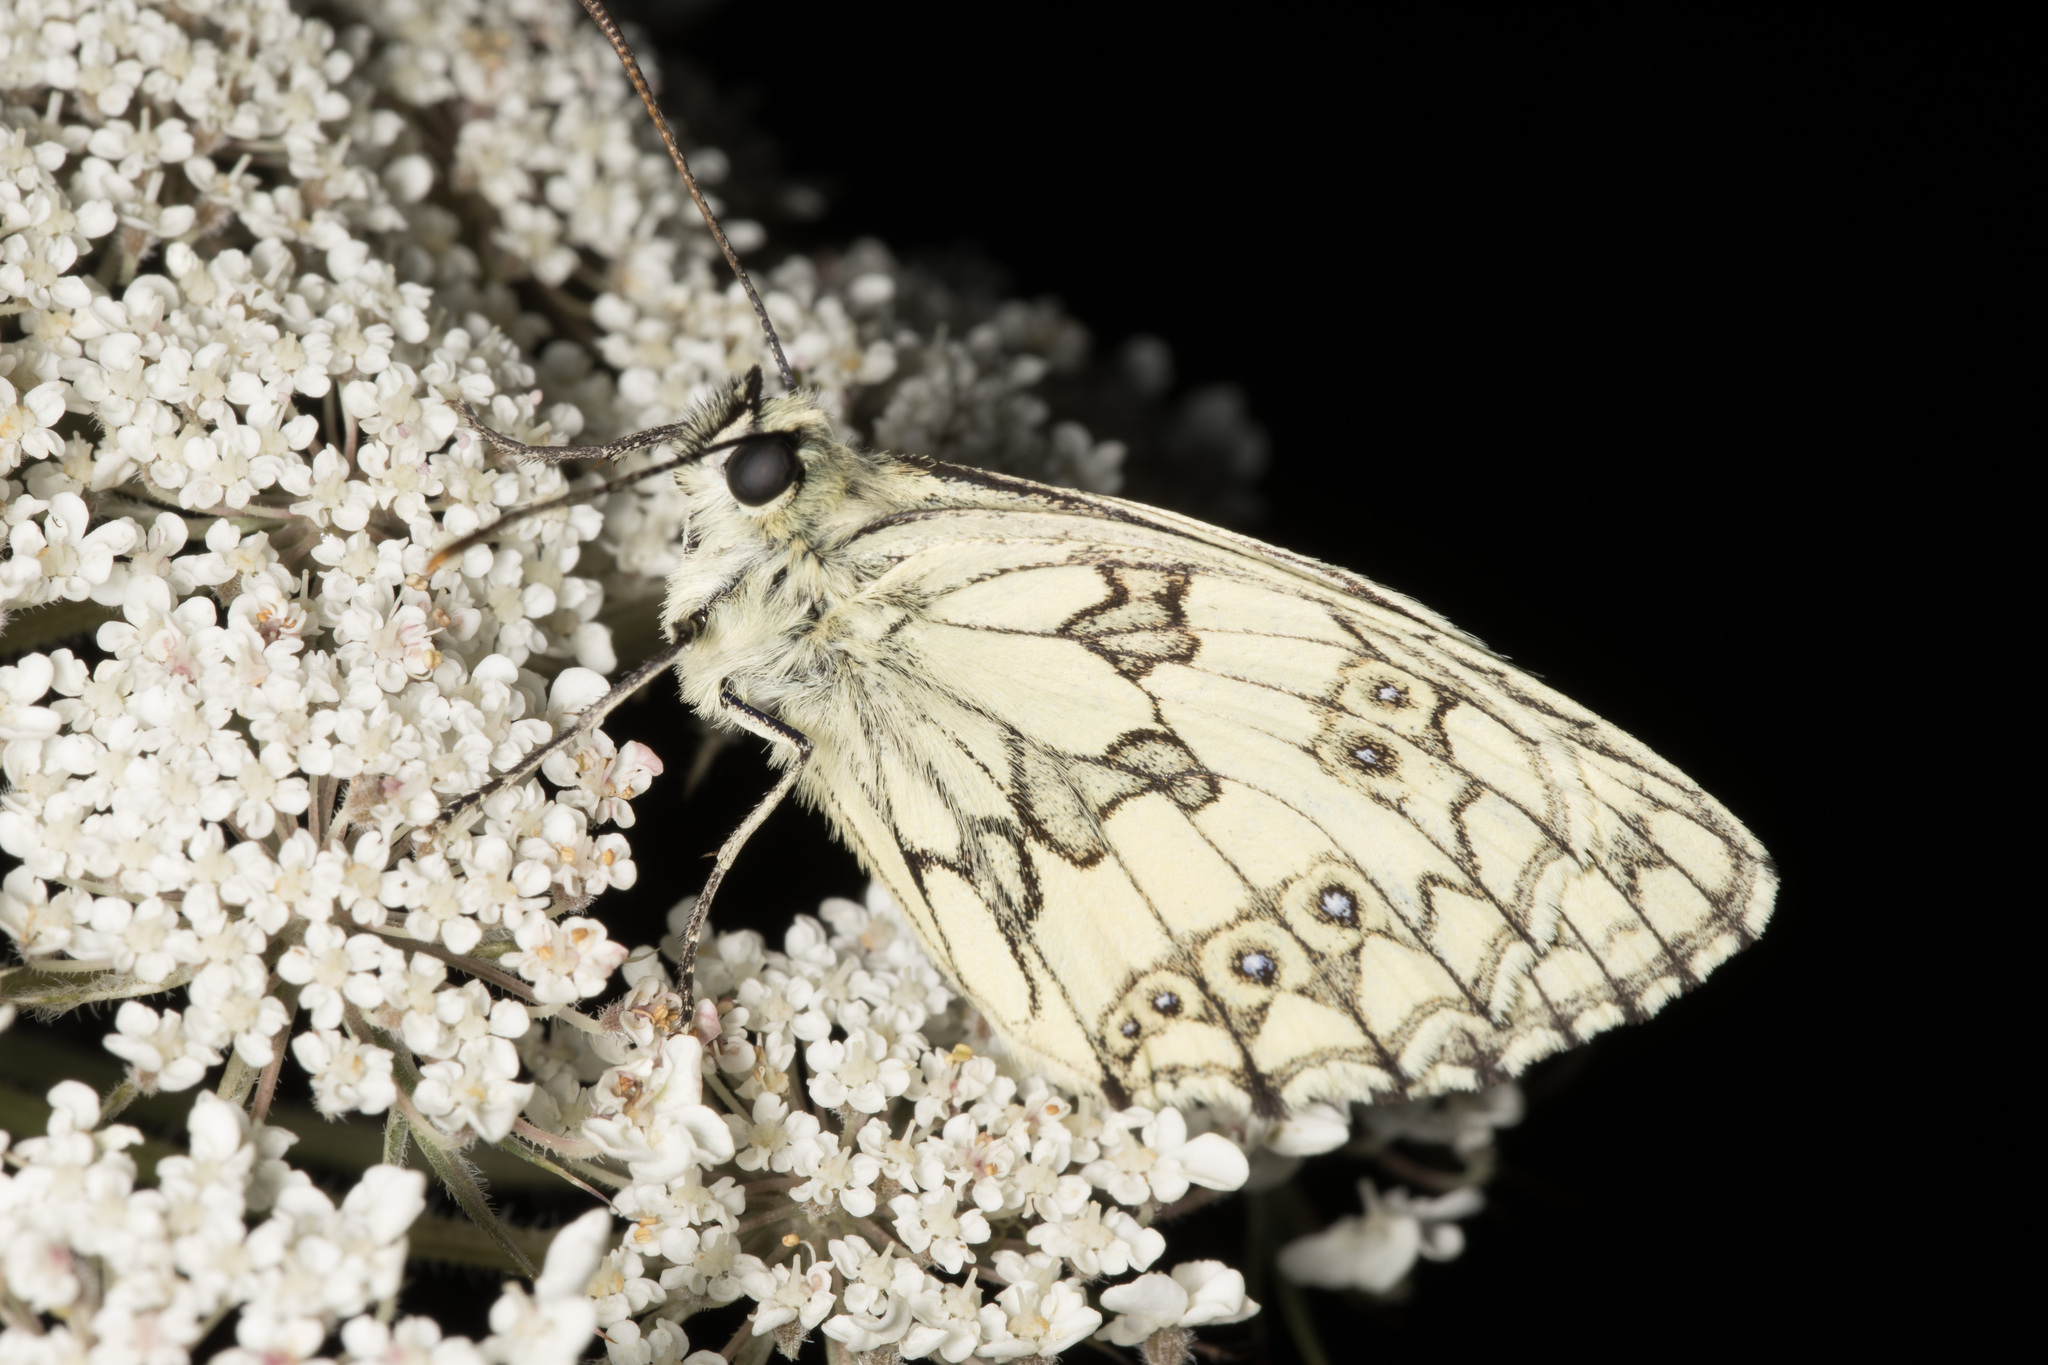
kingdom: Animalia
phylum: Arthropoda
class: Insecta
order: Lepidoptera
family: Nymphalidae
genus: Melanargia
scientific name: Melanargia galathea
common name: Marbled white
